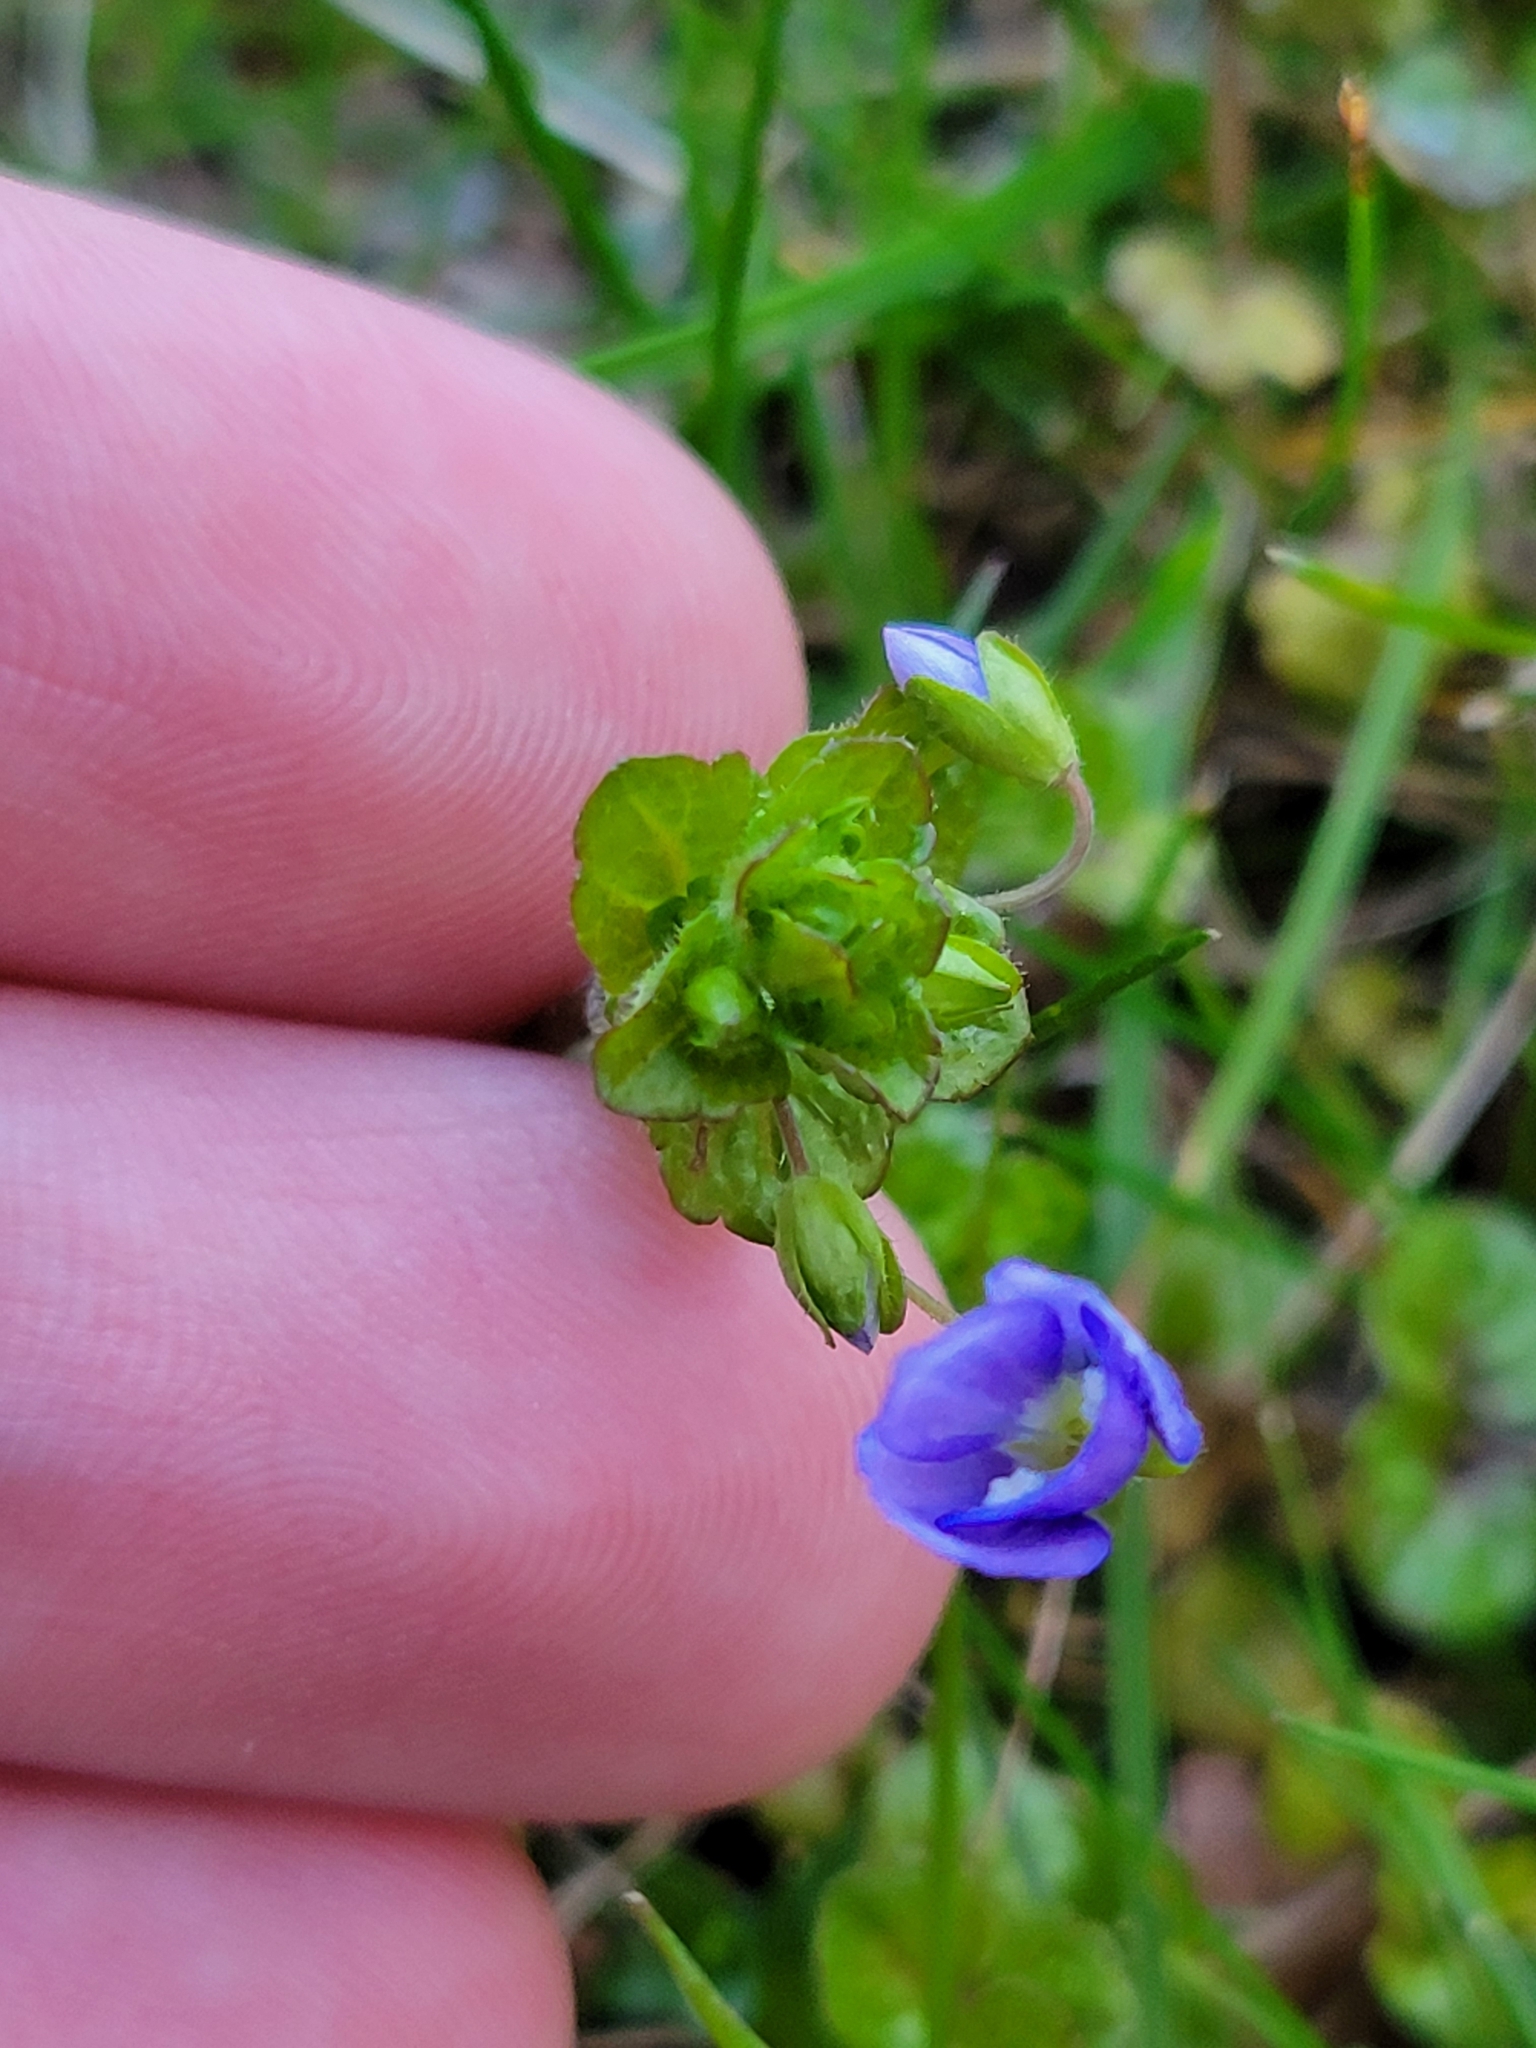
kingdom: Plantae
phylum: Tracheophyta
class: Magnoliopsida
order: Lamiales
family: Plantaginaceae
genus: Veronica
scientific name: Veronica filiformis
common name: Slender speedwell
